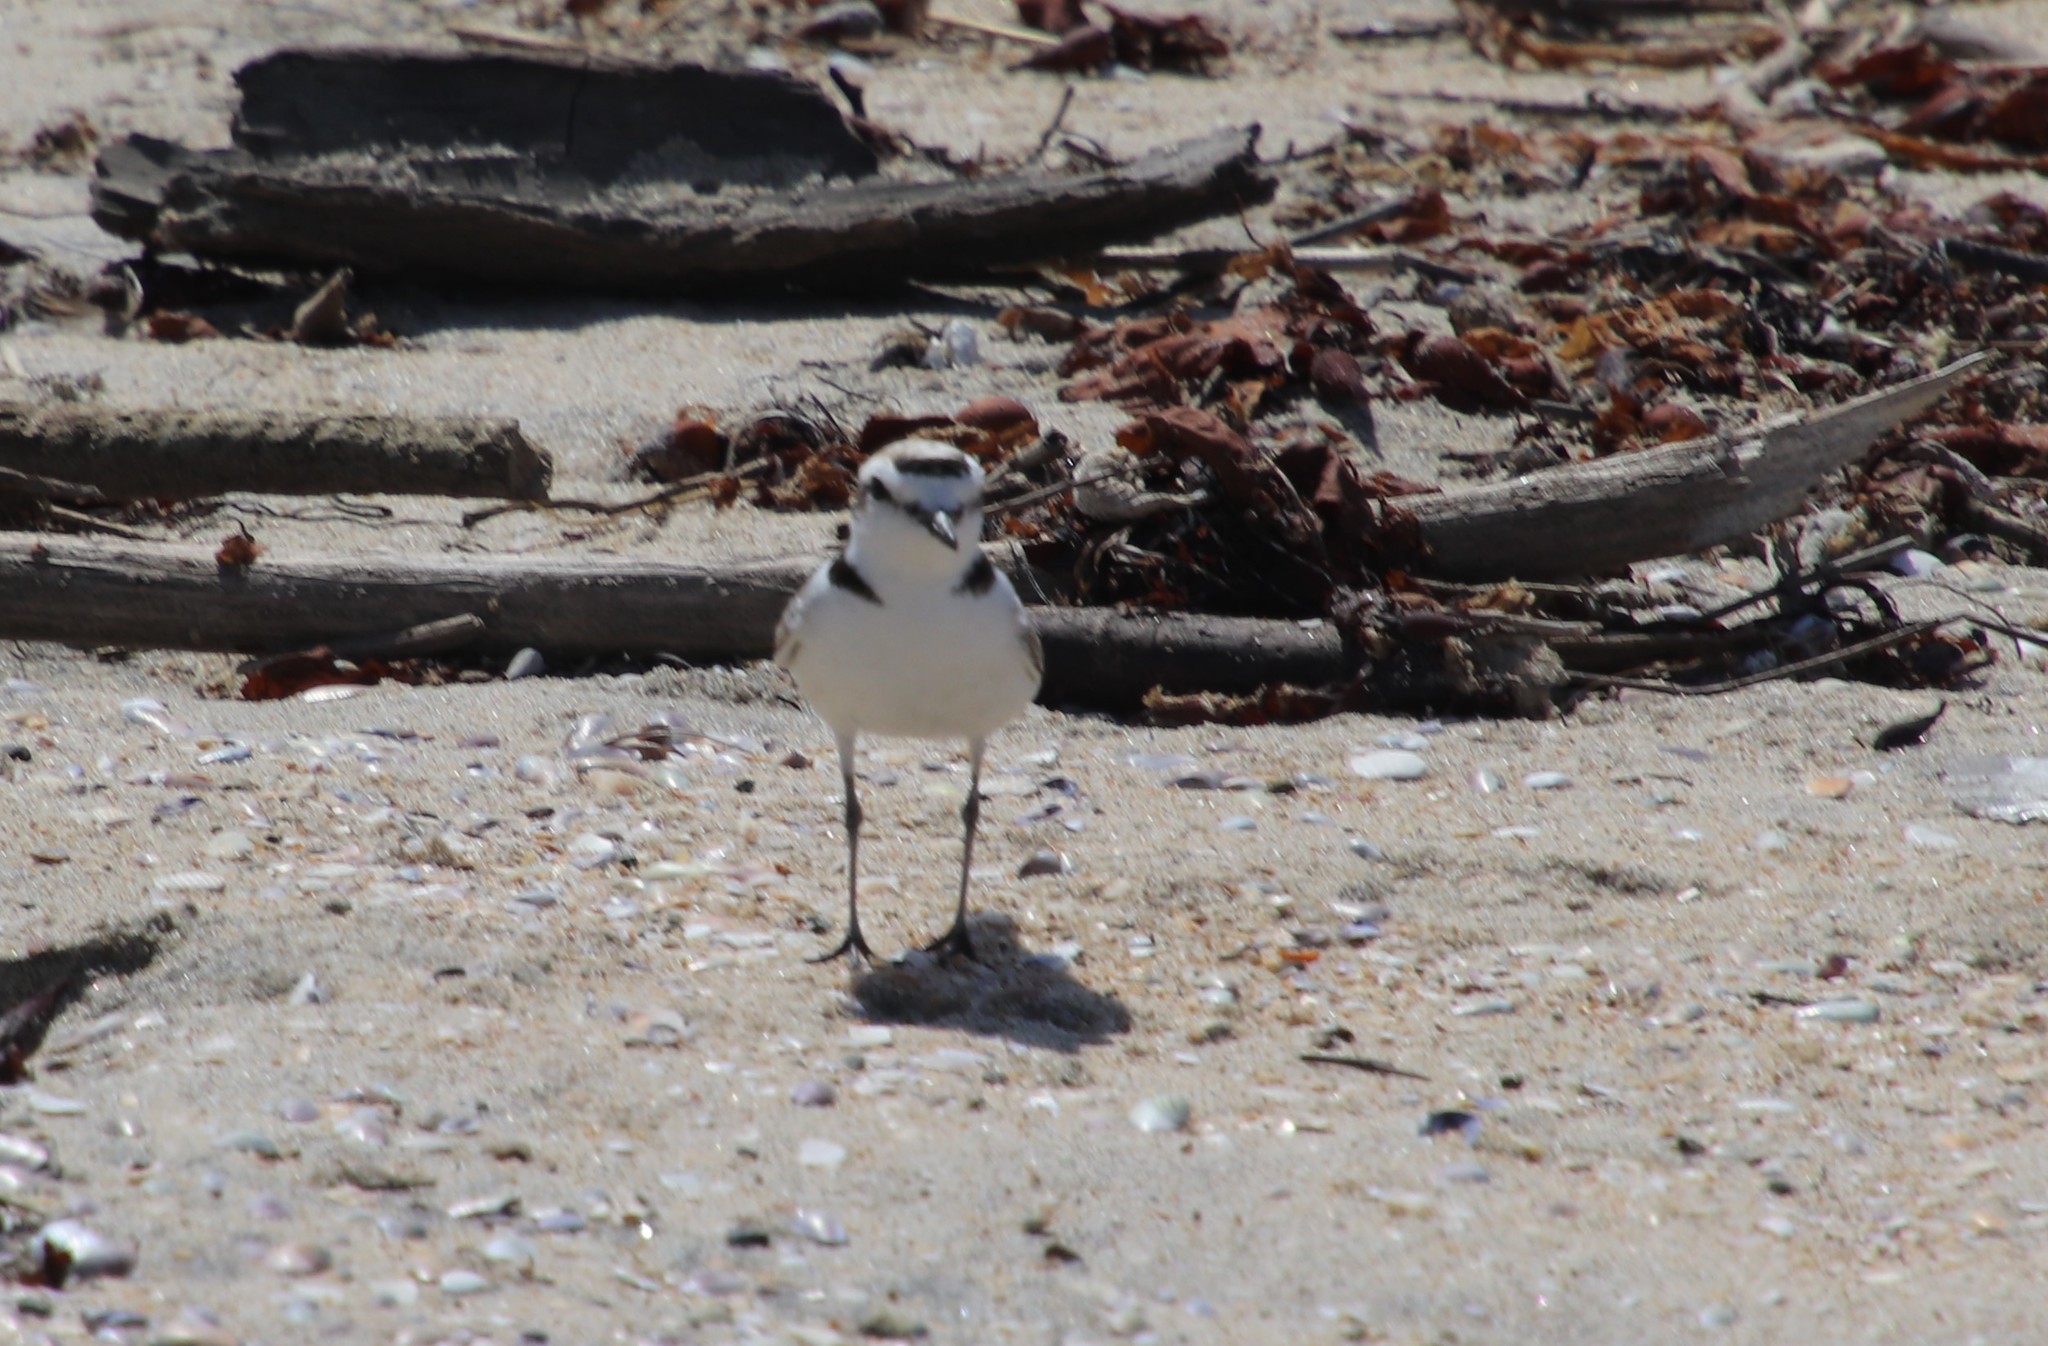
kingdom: Animalia
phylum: Chordata
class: Aves
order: Charadriiformes
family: Charadriidae
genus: Anarhynchus
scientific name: Anarhynchus
